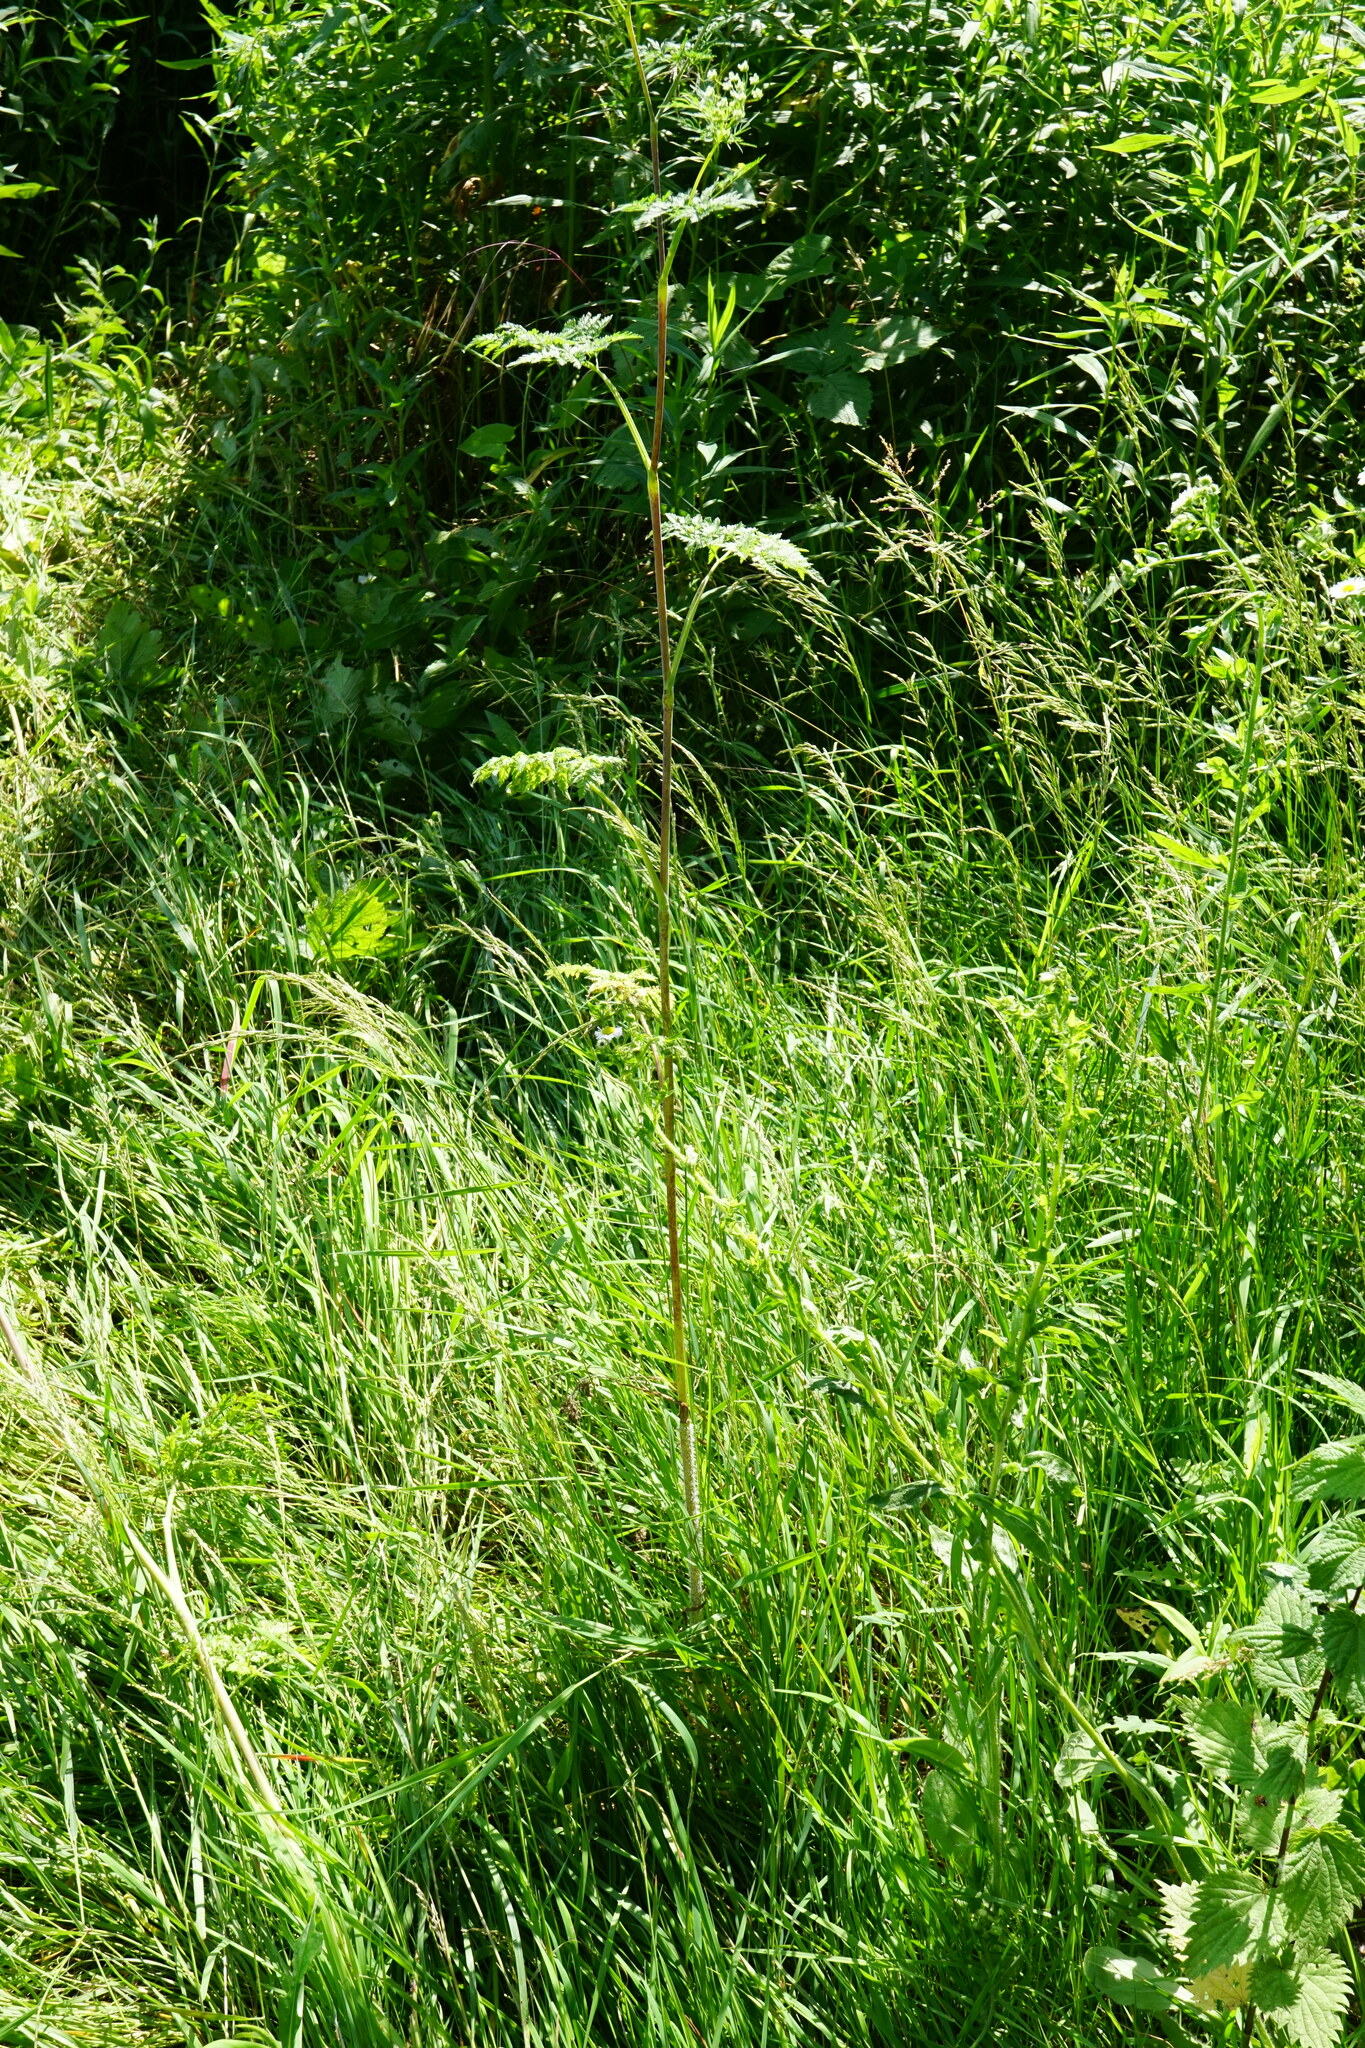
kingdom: Plantae
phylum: Tracheophyta
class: Magnoliopsida
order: Apiales
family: Apiaceae
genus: Chaerophyllum
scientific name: Chaerophyllum bulbosum
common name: Bulbous chervil
